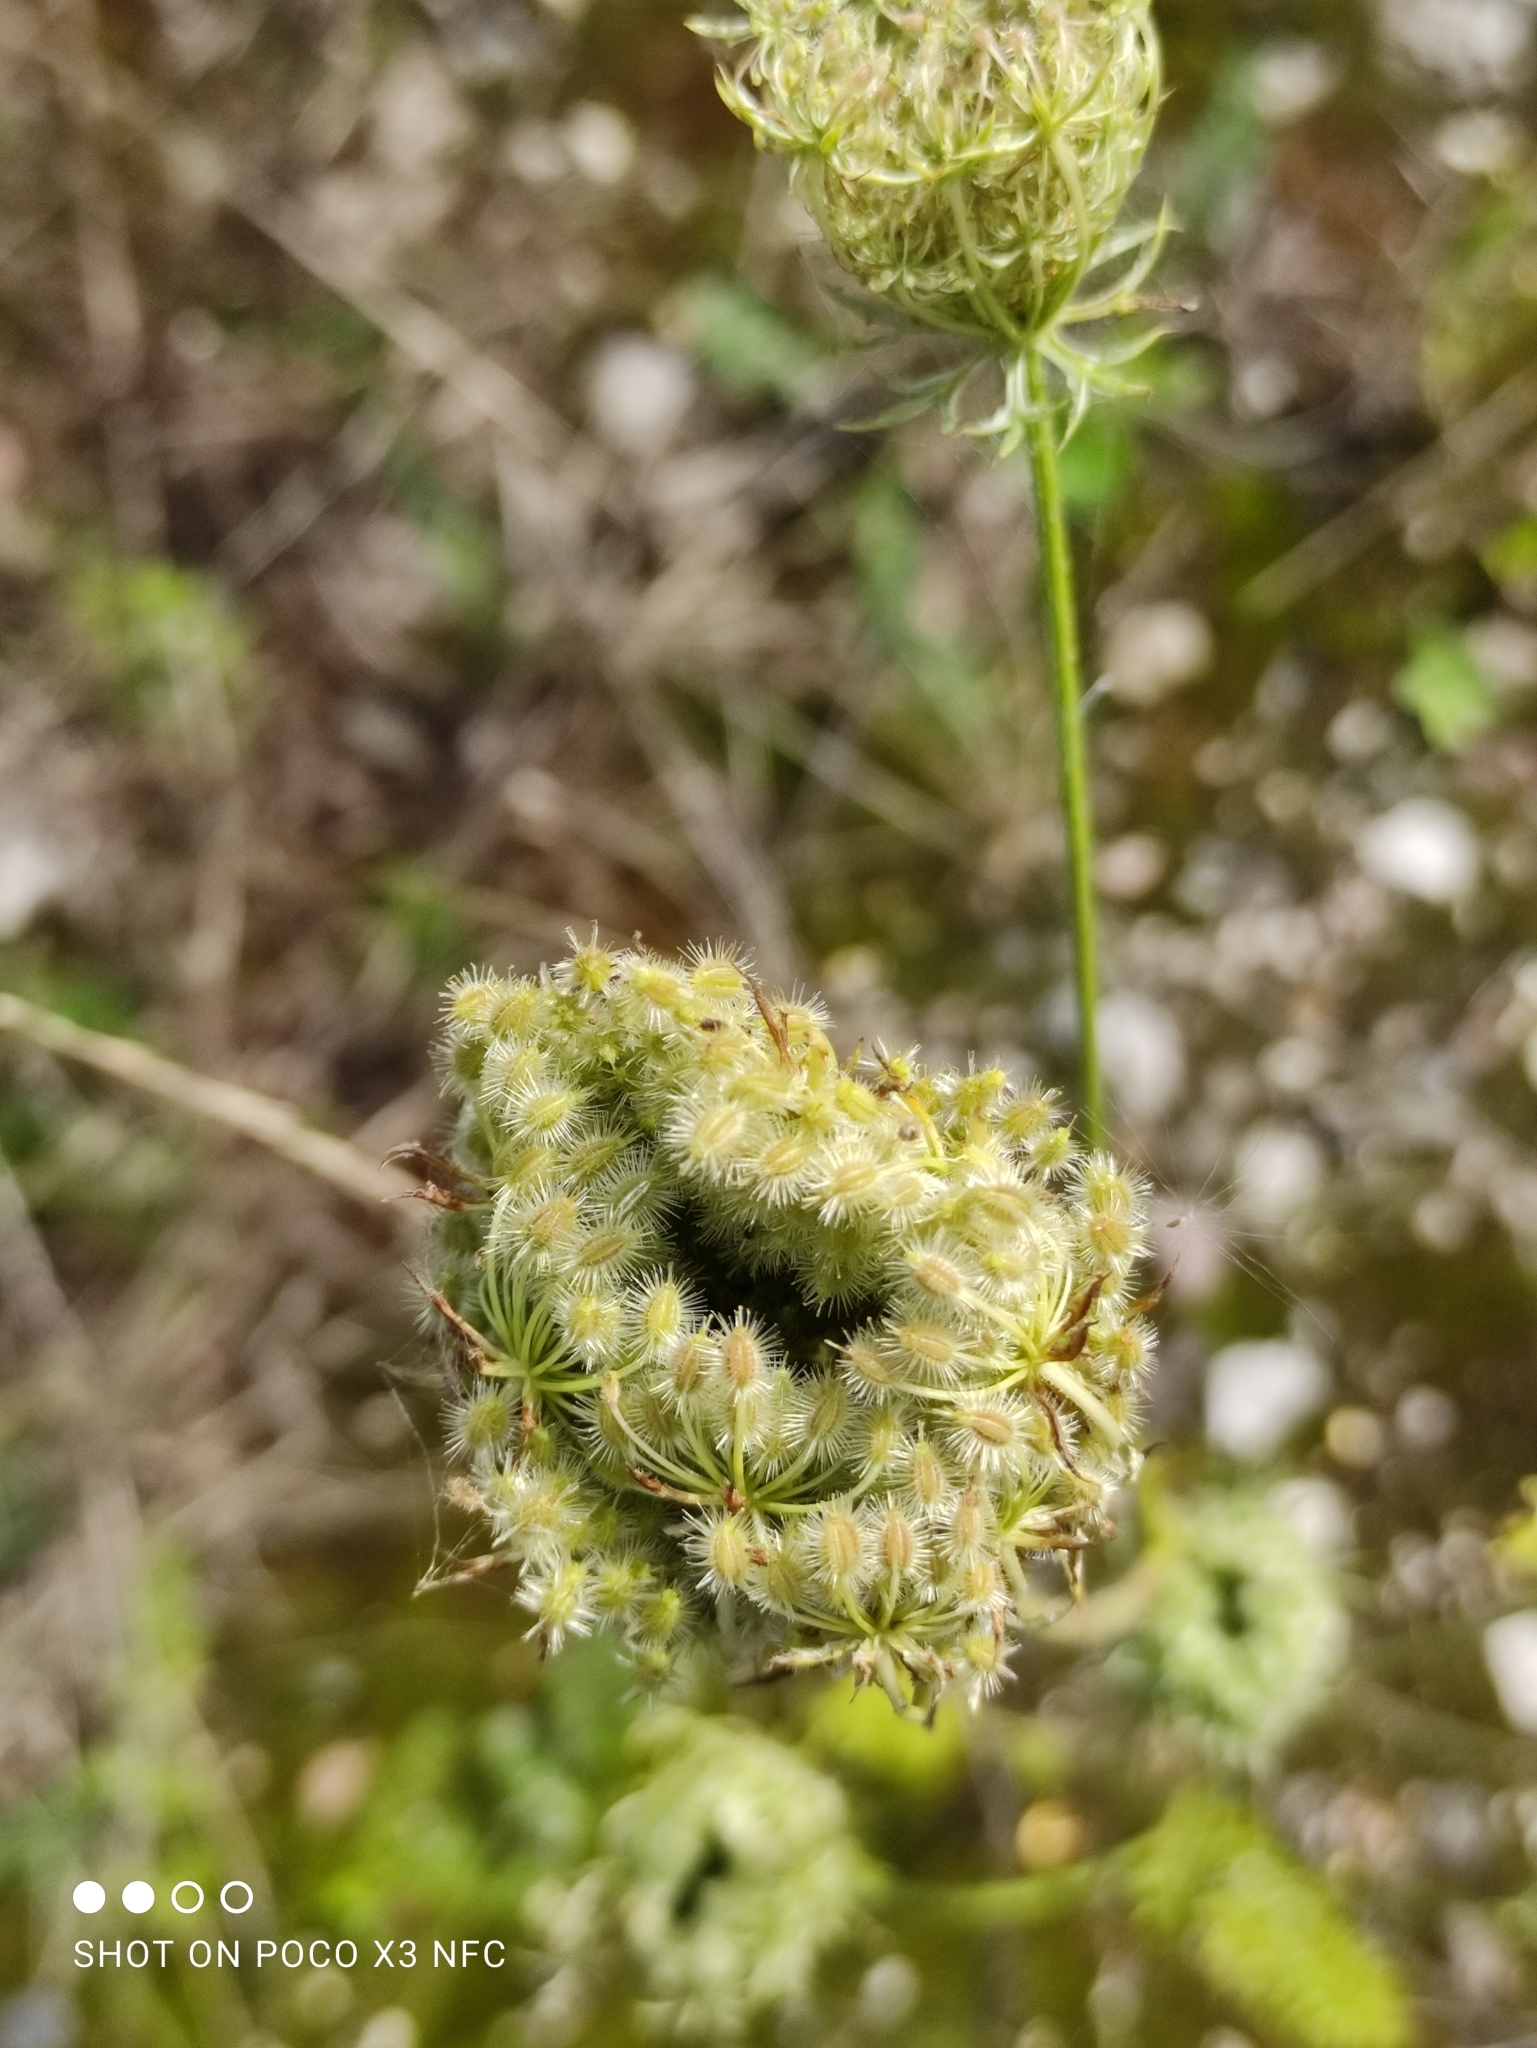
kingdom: Plantae
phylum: Tracheophyta
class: Magnoliopsida
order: Apiales
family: Apiaceae
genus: Daucus
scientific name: Daucus carota
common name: Wild carrot
